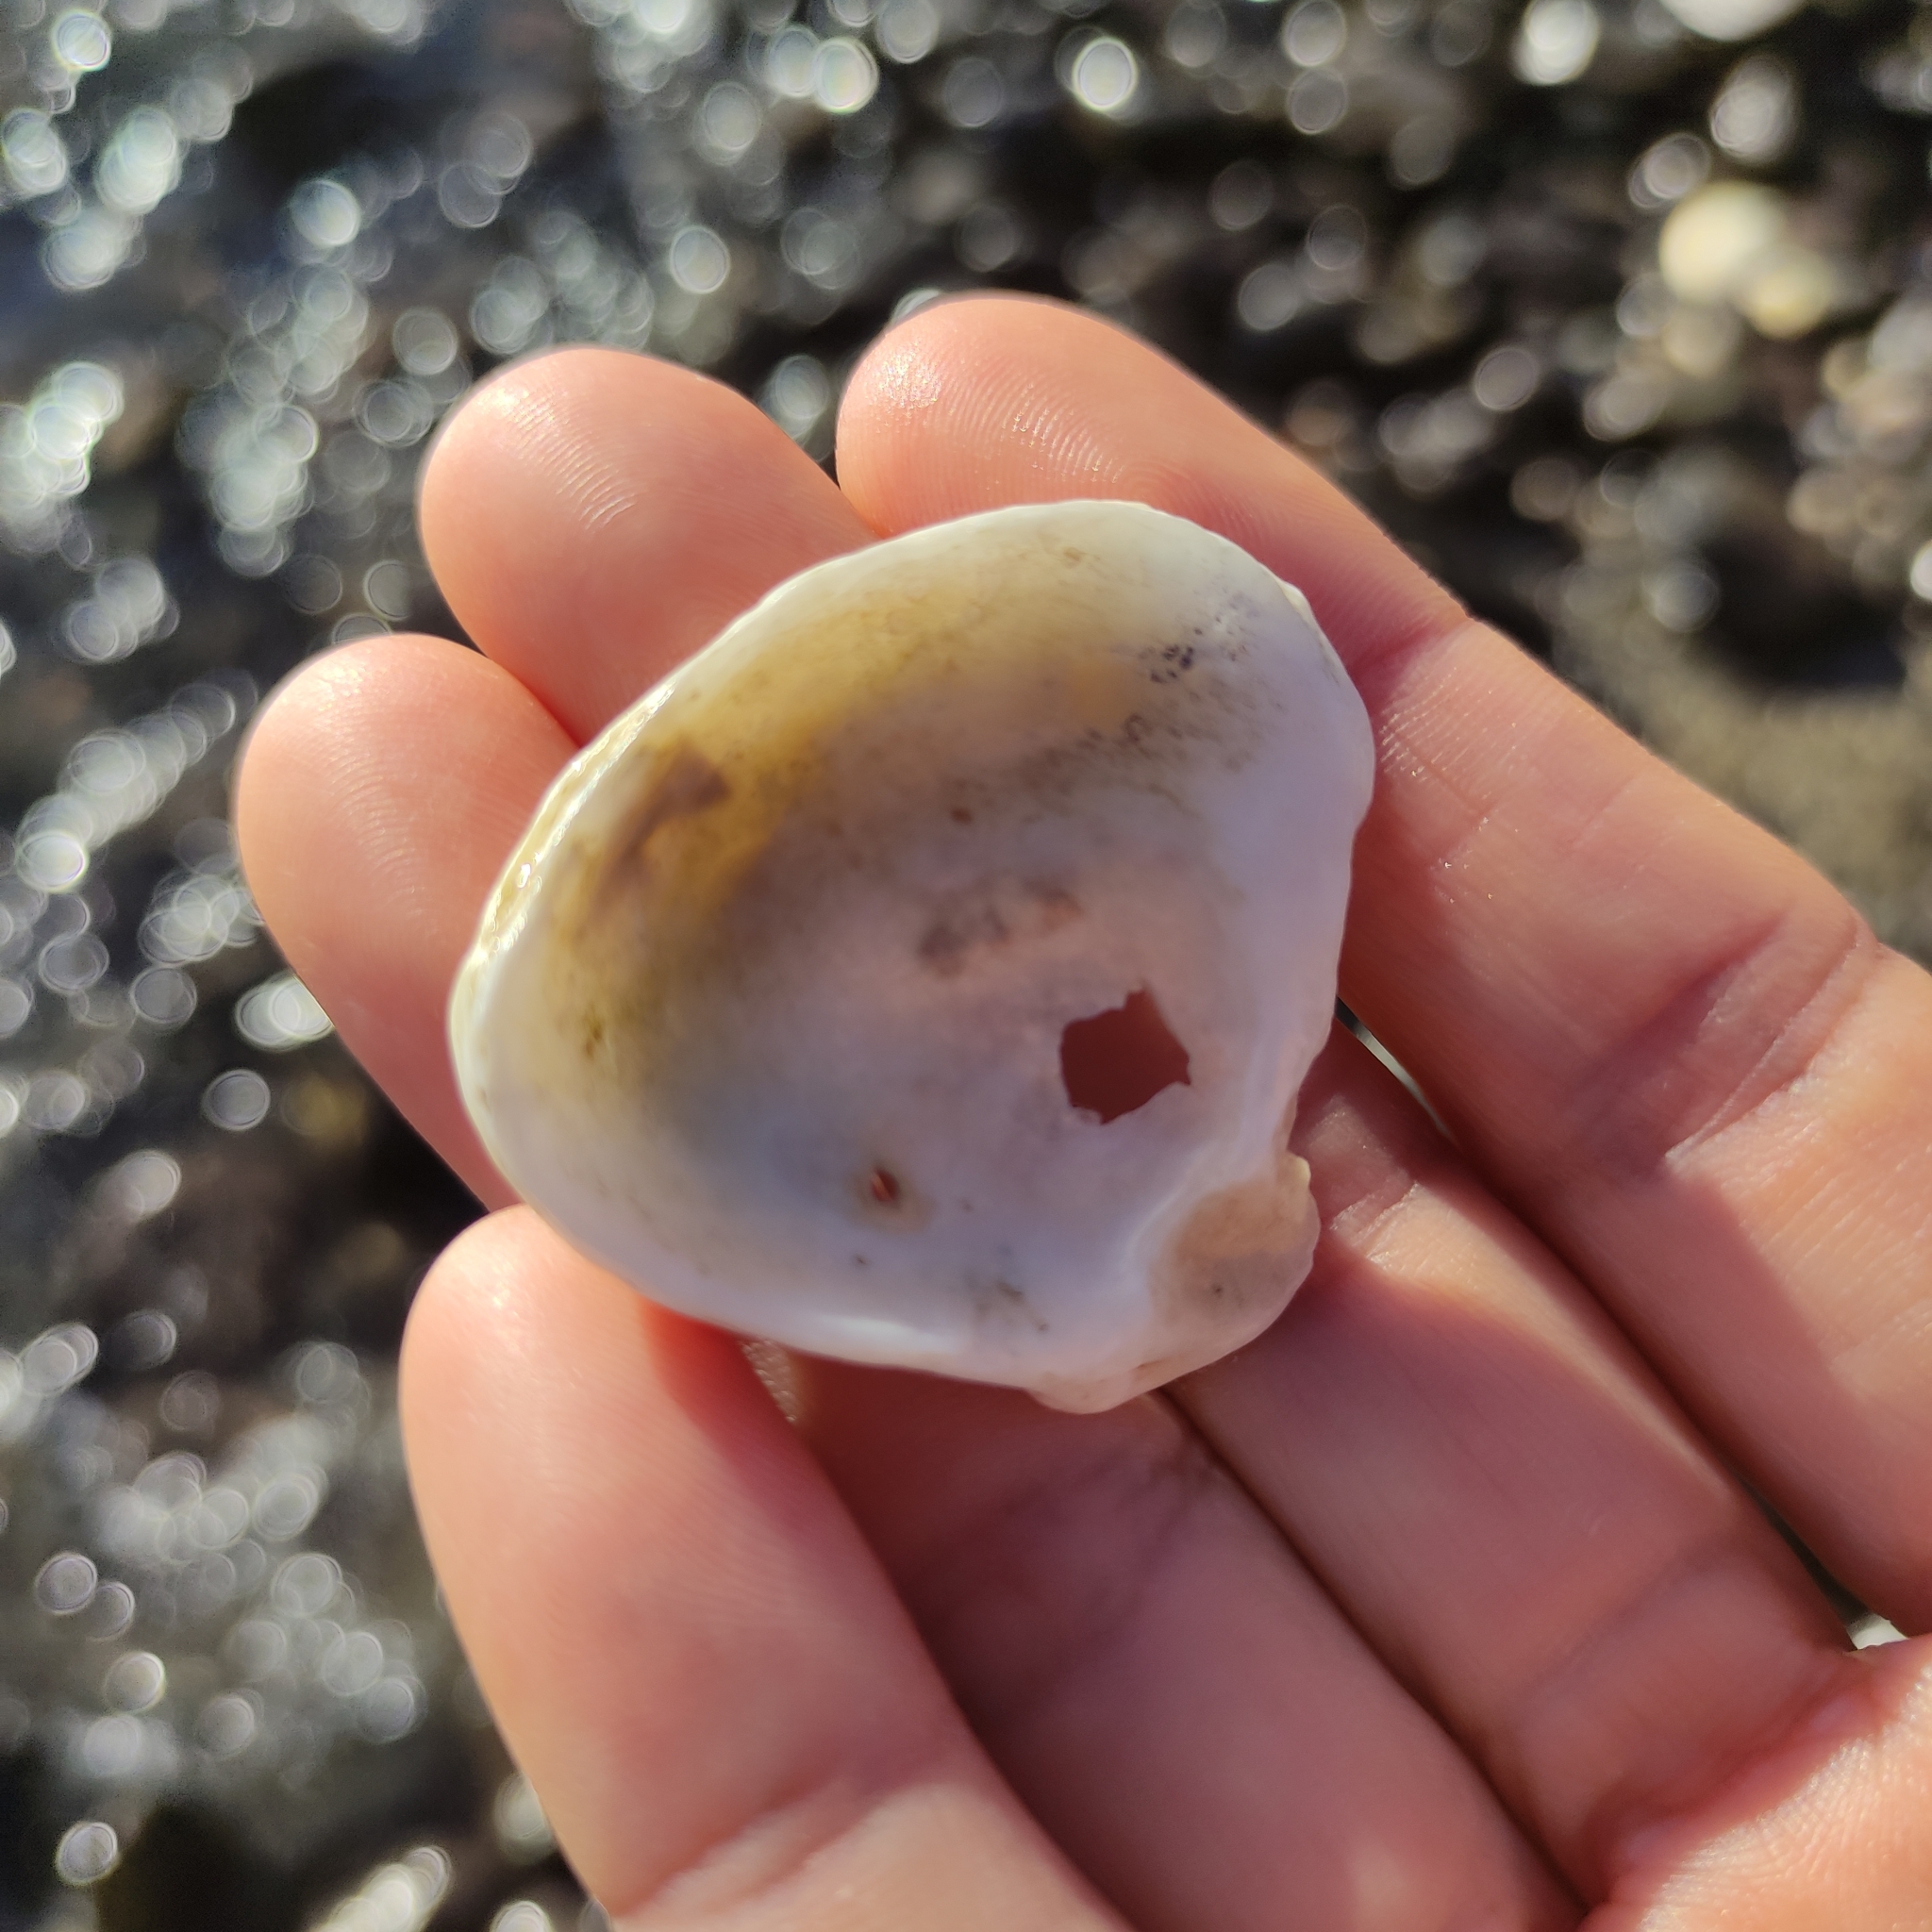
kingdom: Animalia
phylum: Mollusca
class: Bivalvia
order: Ostreida
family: Ostreidae
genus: Ostrea
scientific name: Ostrea chilensis
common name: Chilean oyster
